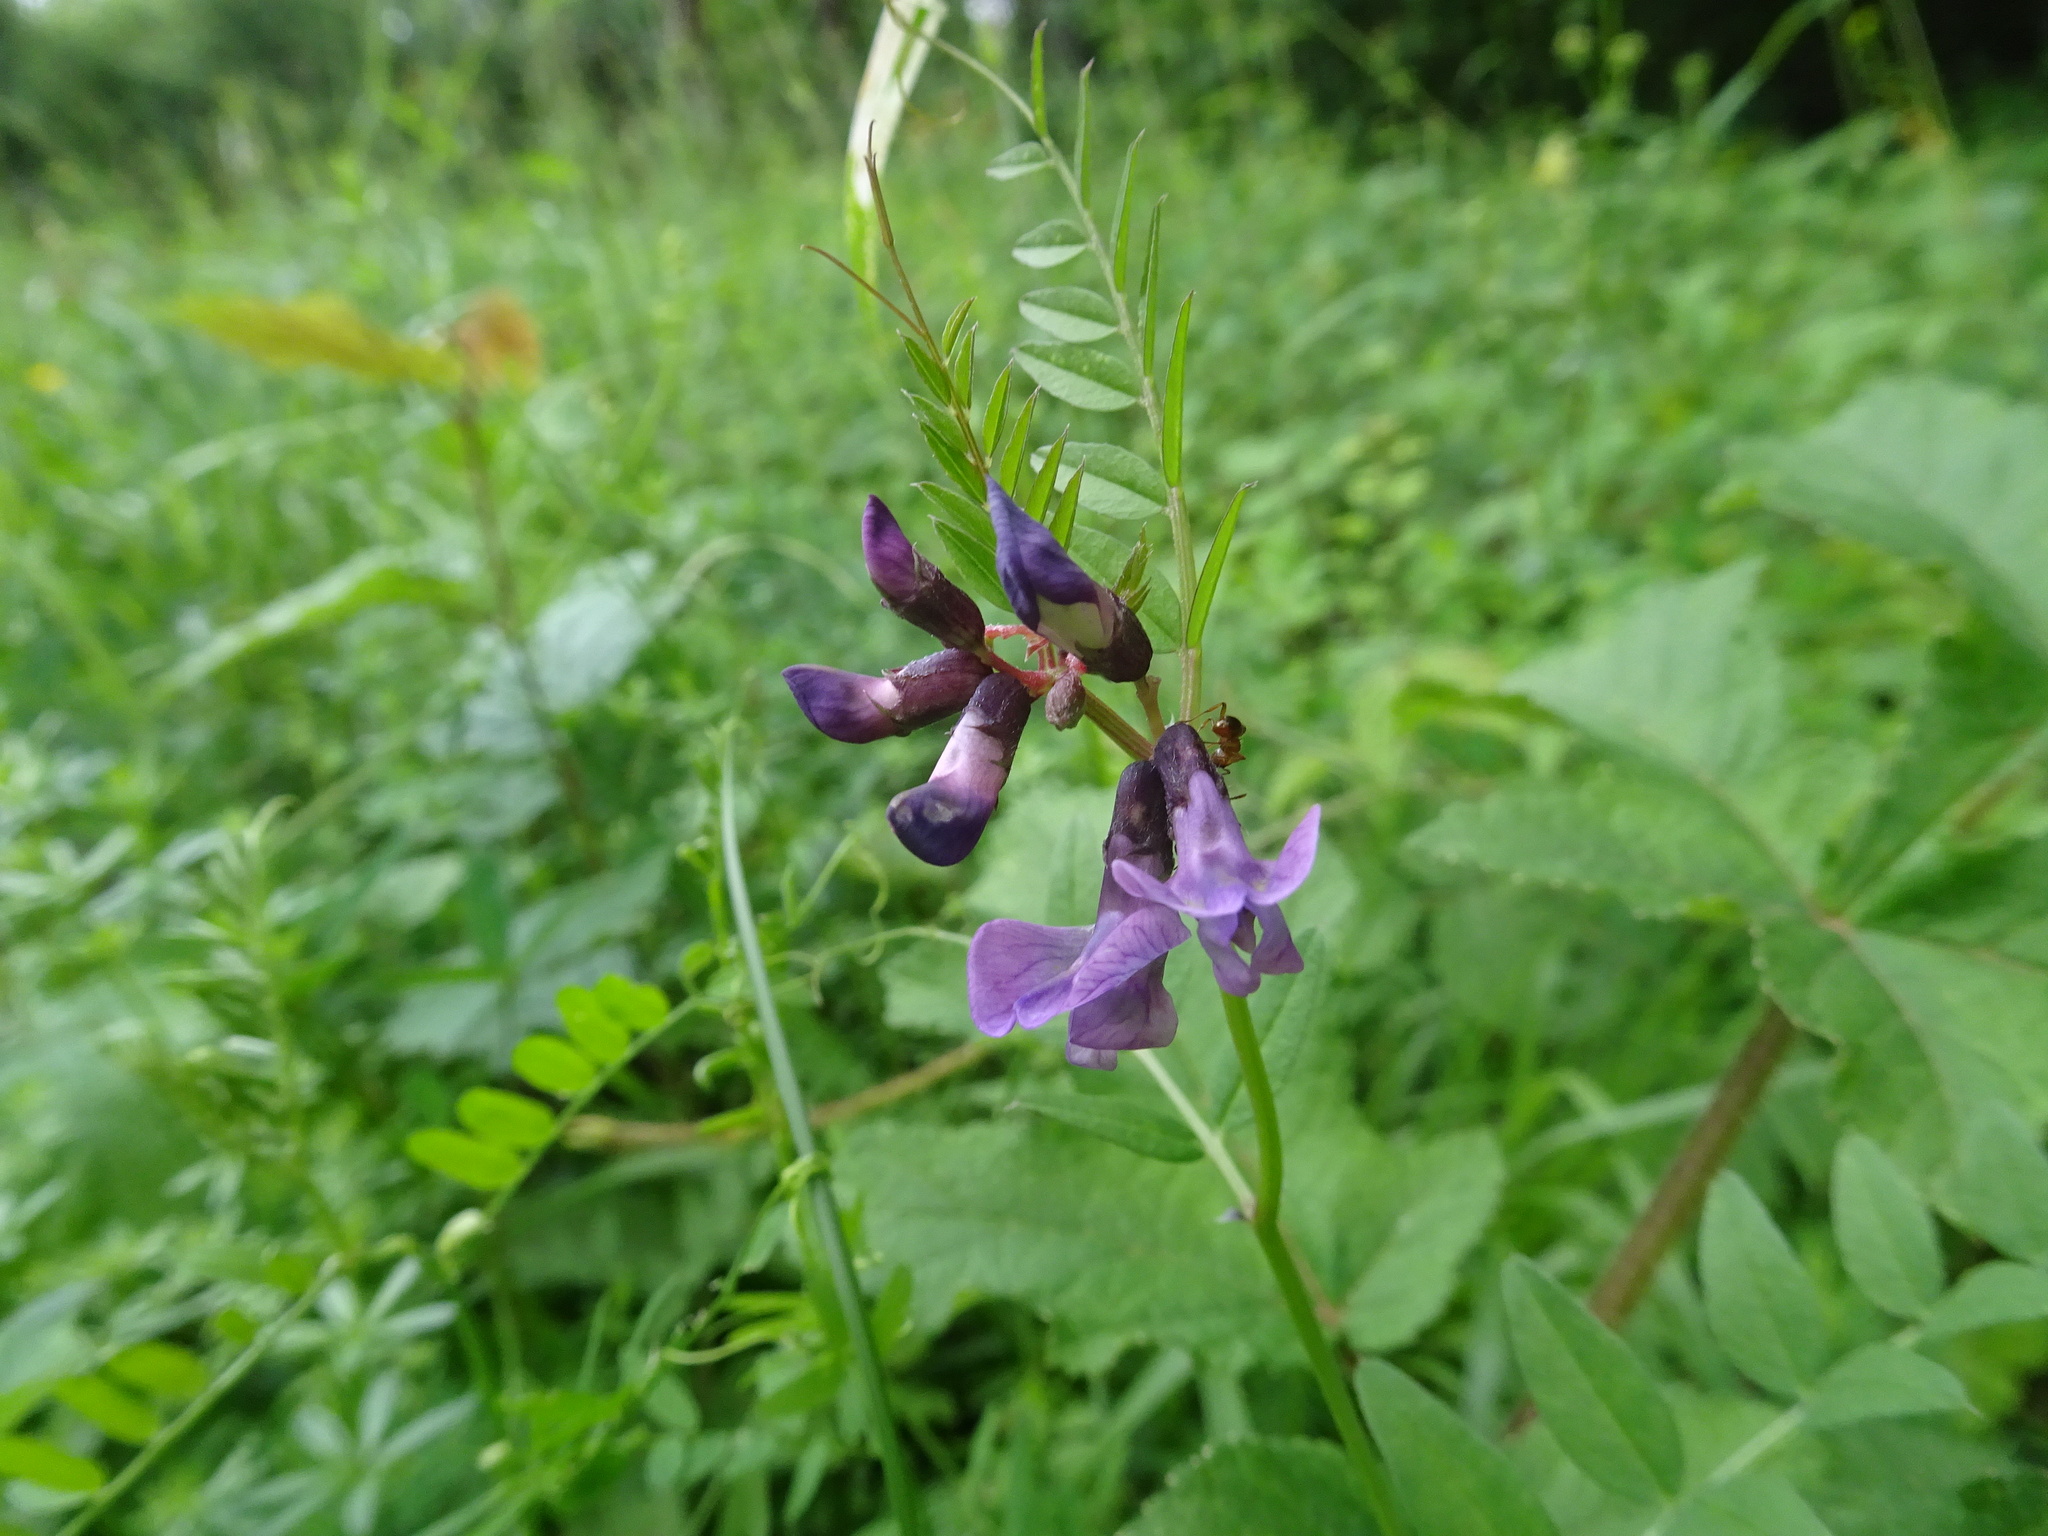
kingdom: Plantae
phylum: Tracheophyta
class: Magnoliopsida
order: Fabales
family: Fabaceae
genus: Vicia
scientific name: Vicia sepium
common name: Bush vetch
